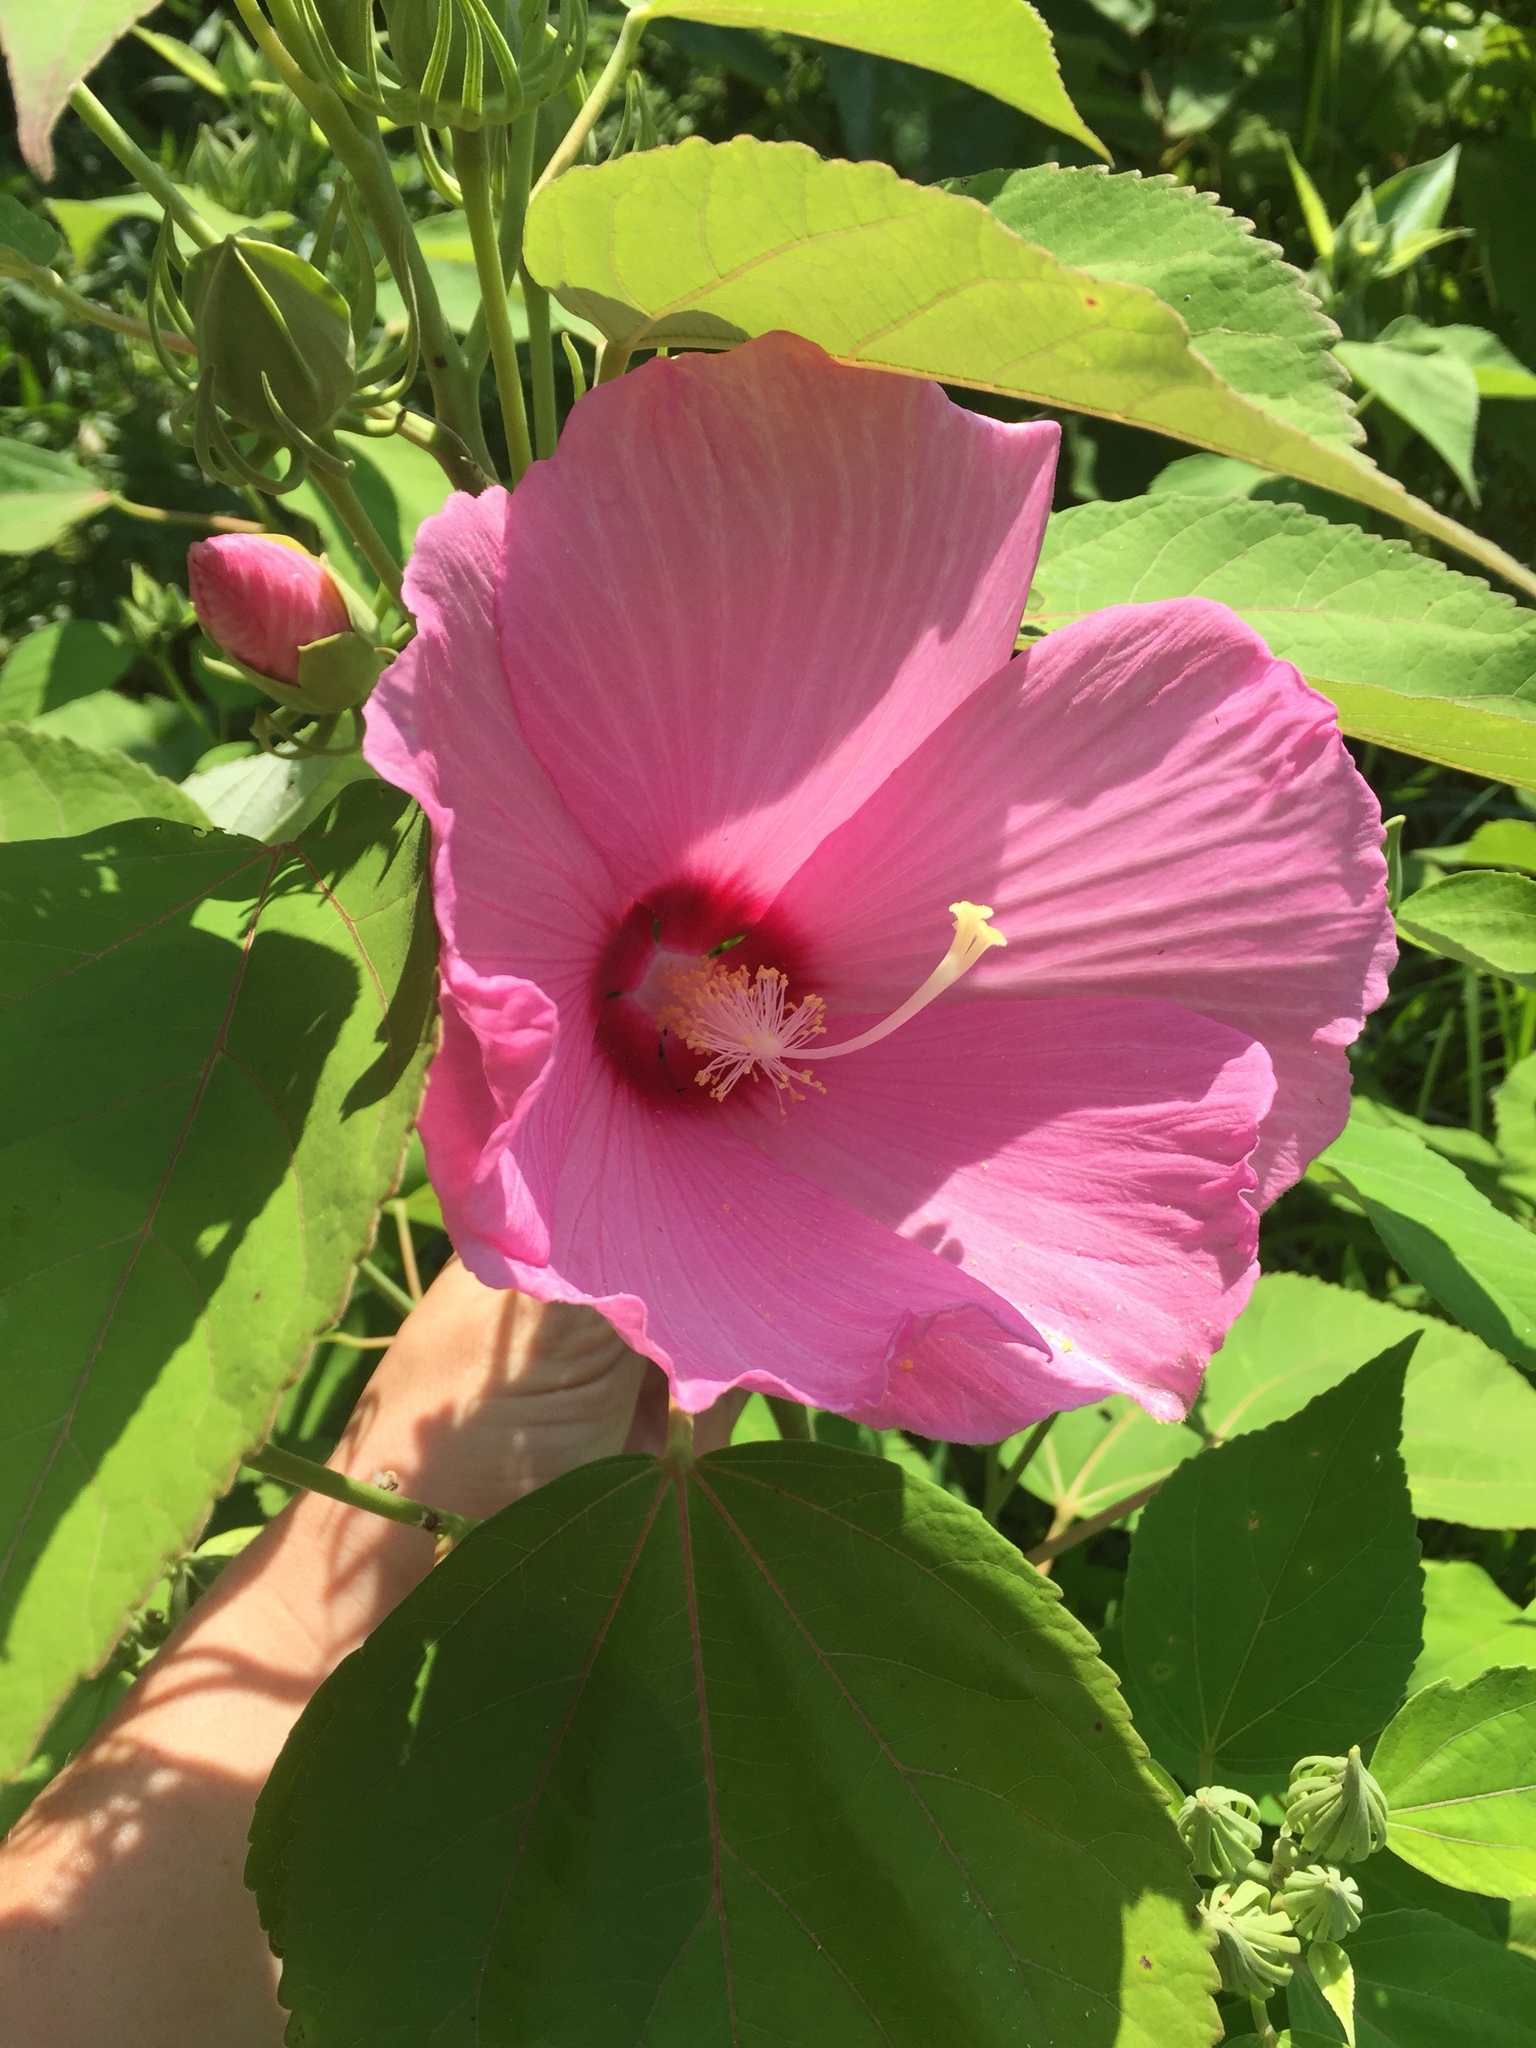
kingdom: Plantae
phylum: Tracheophyta
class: Magnoliopsida
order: Malvales
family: Malvaceae
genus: Hibiscus
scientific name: Hibiscus moscheutos
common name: Common rose-mallow
